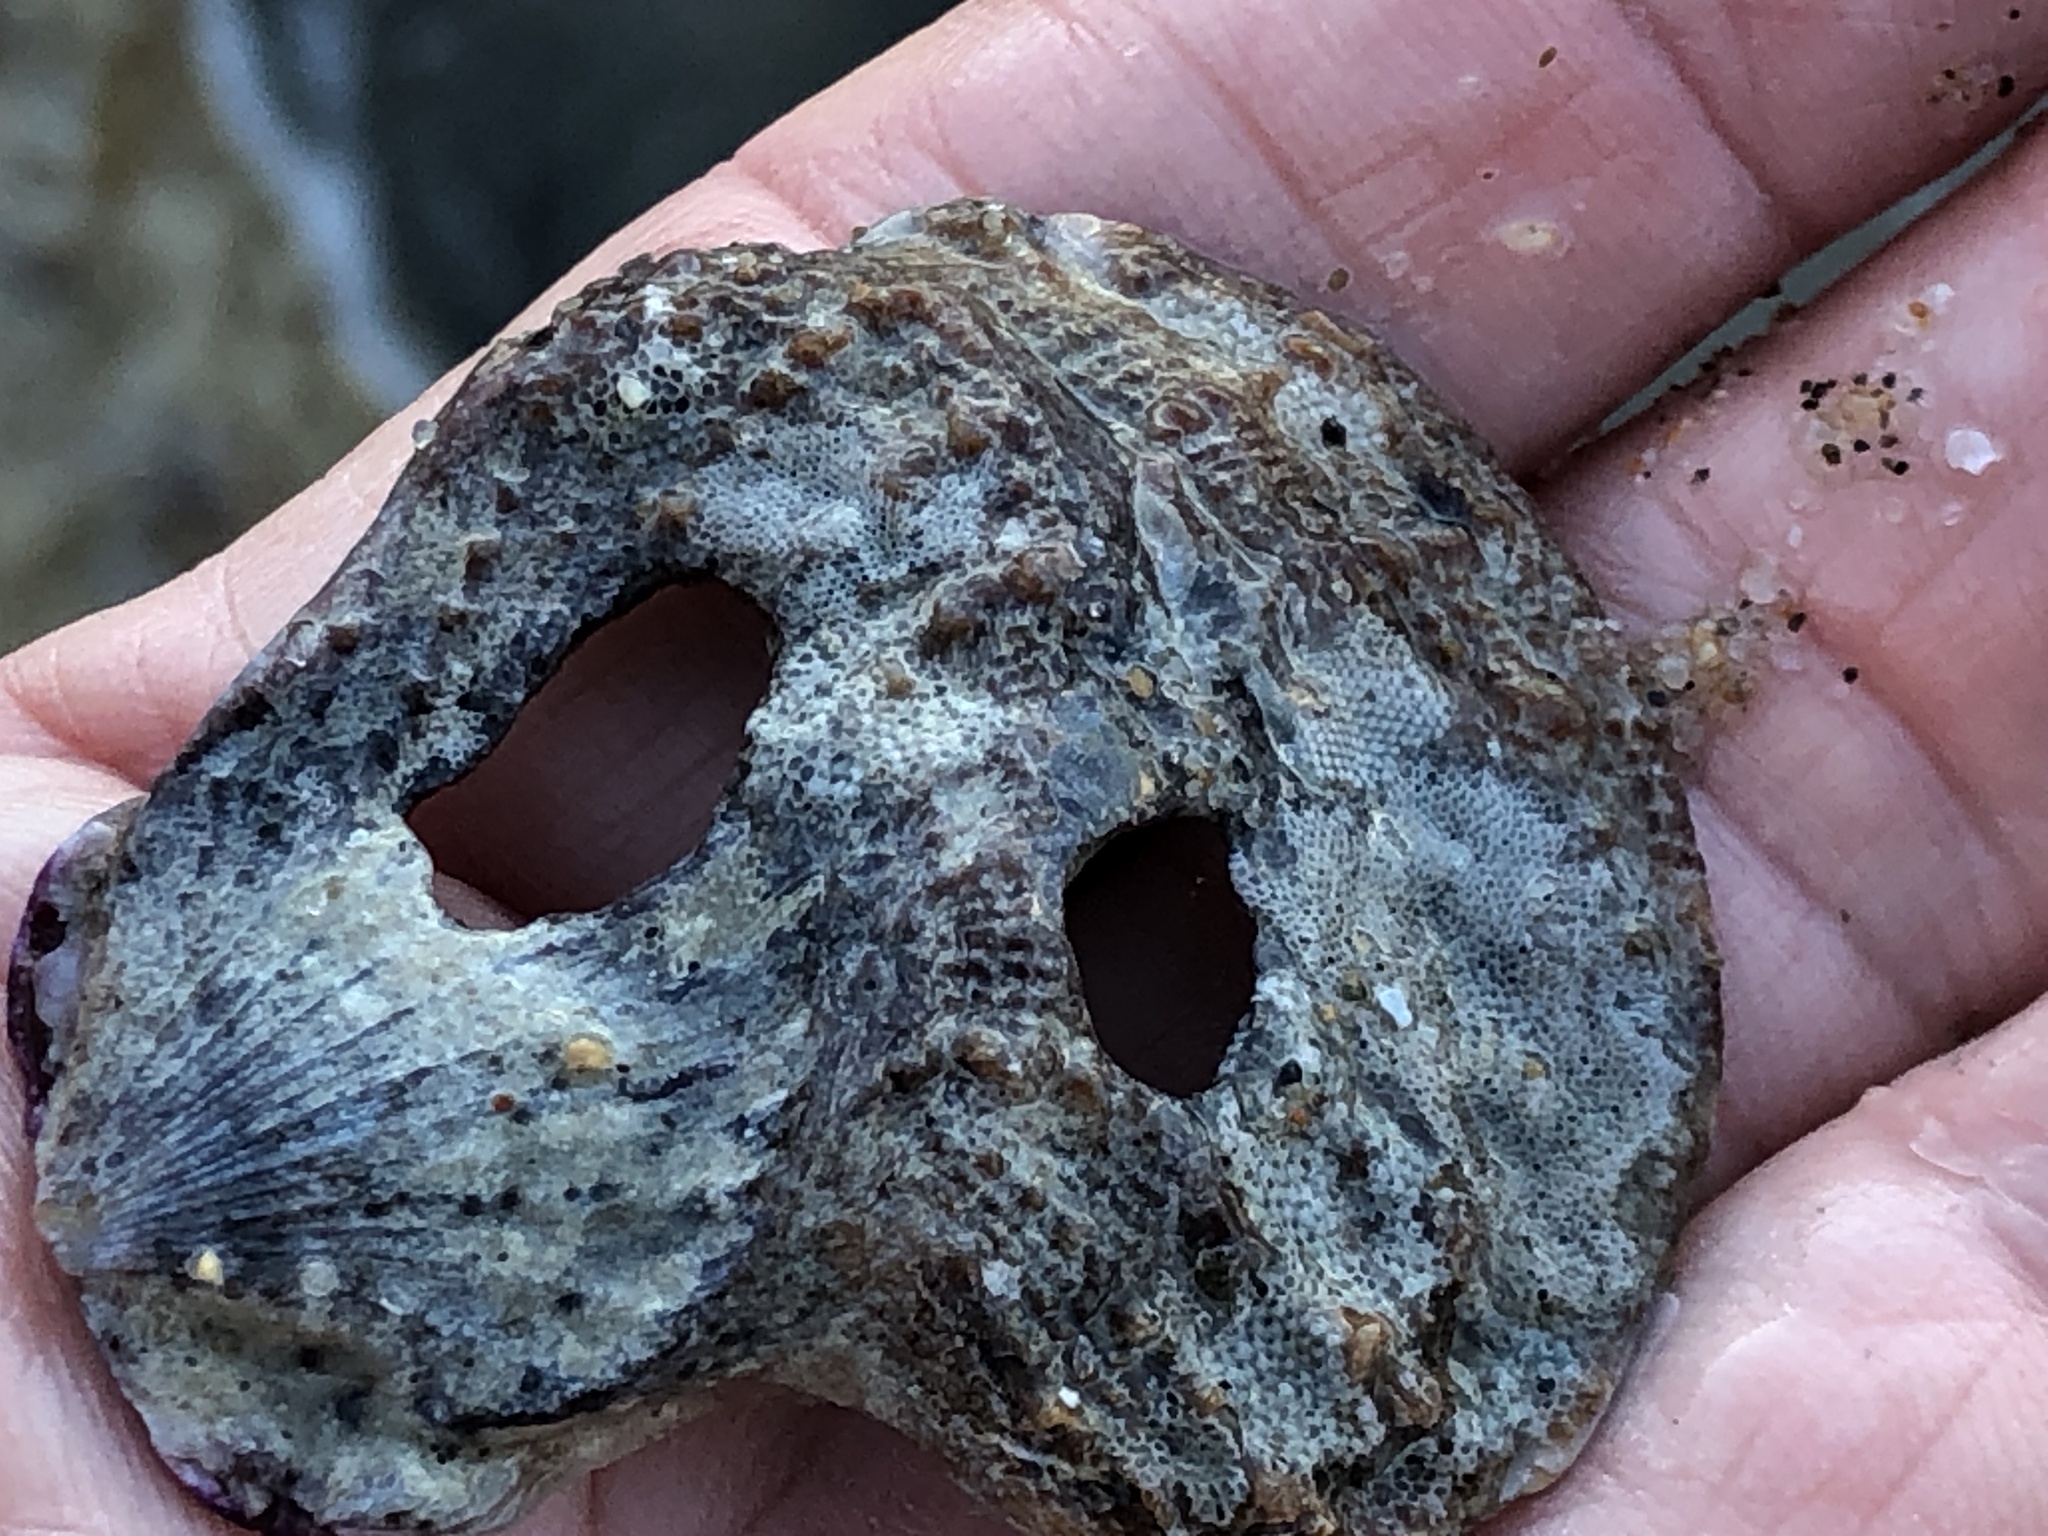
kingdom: Animalia
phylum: Mollusca
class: Bivalvia
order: Pectinida
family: Pectinidae
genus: Crassadoma
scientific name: Crassadoma gigantea
